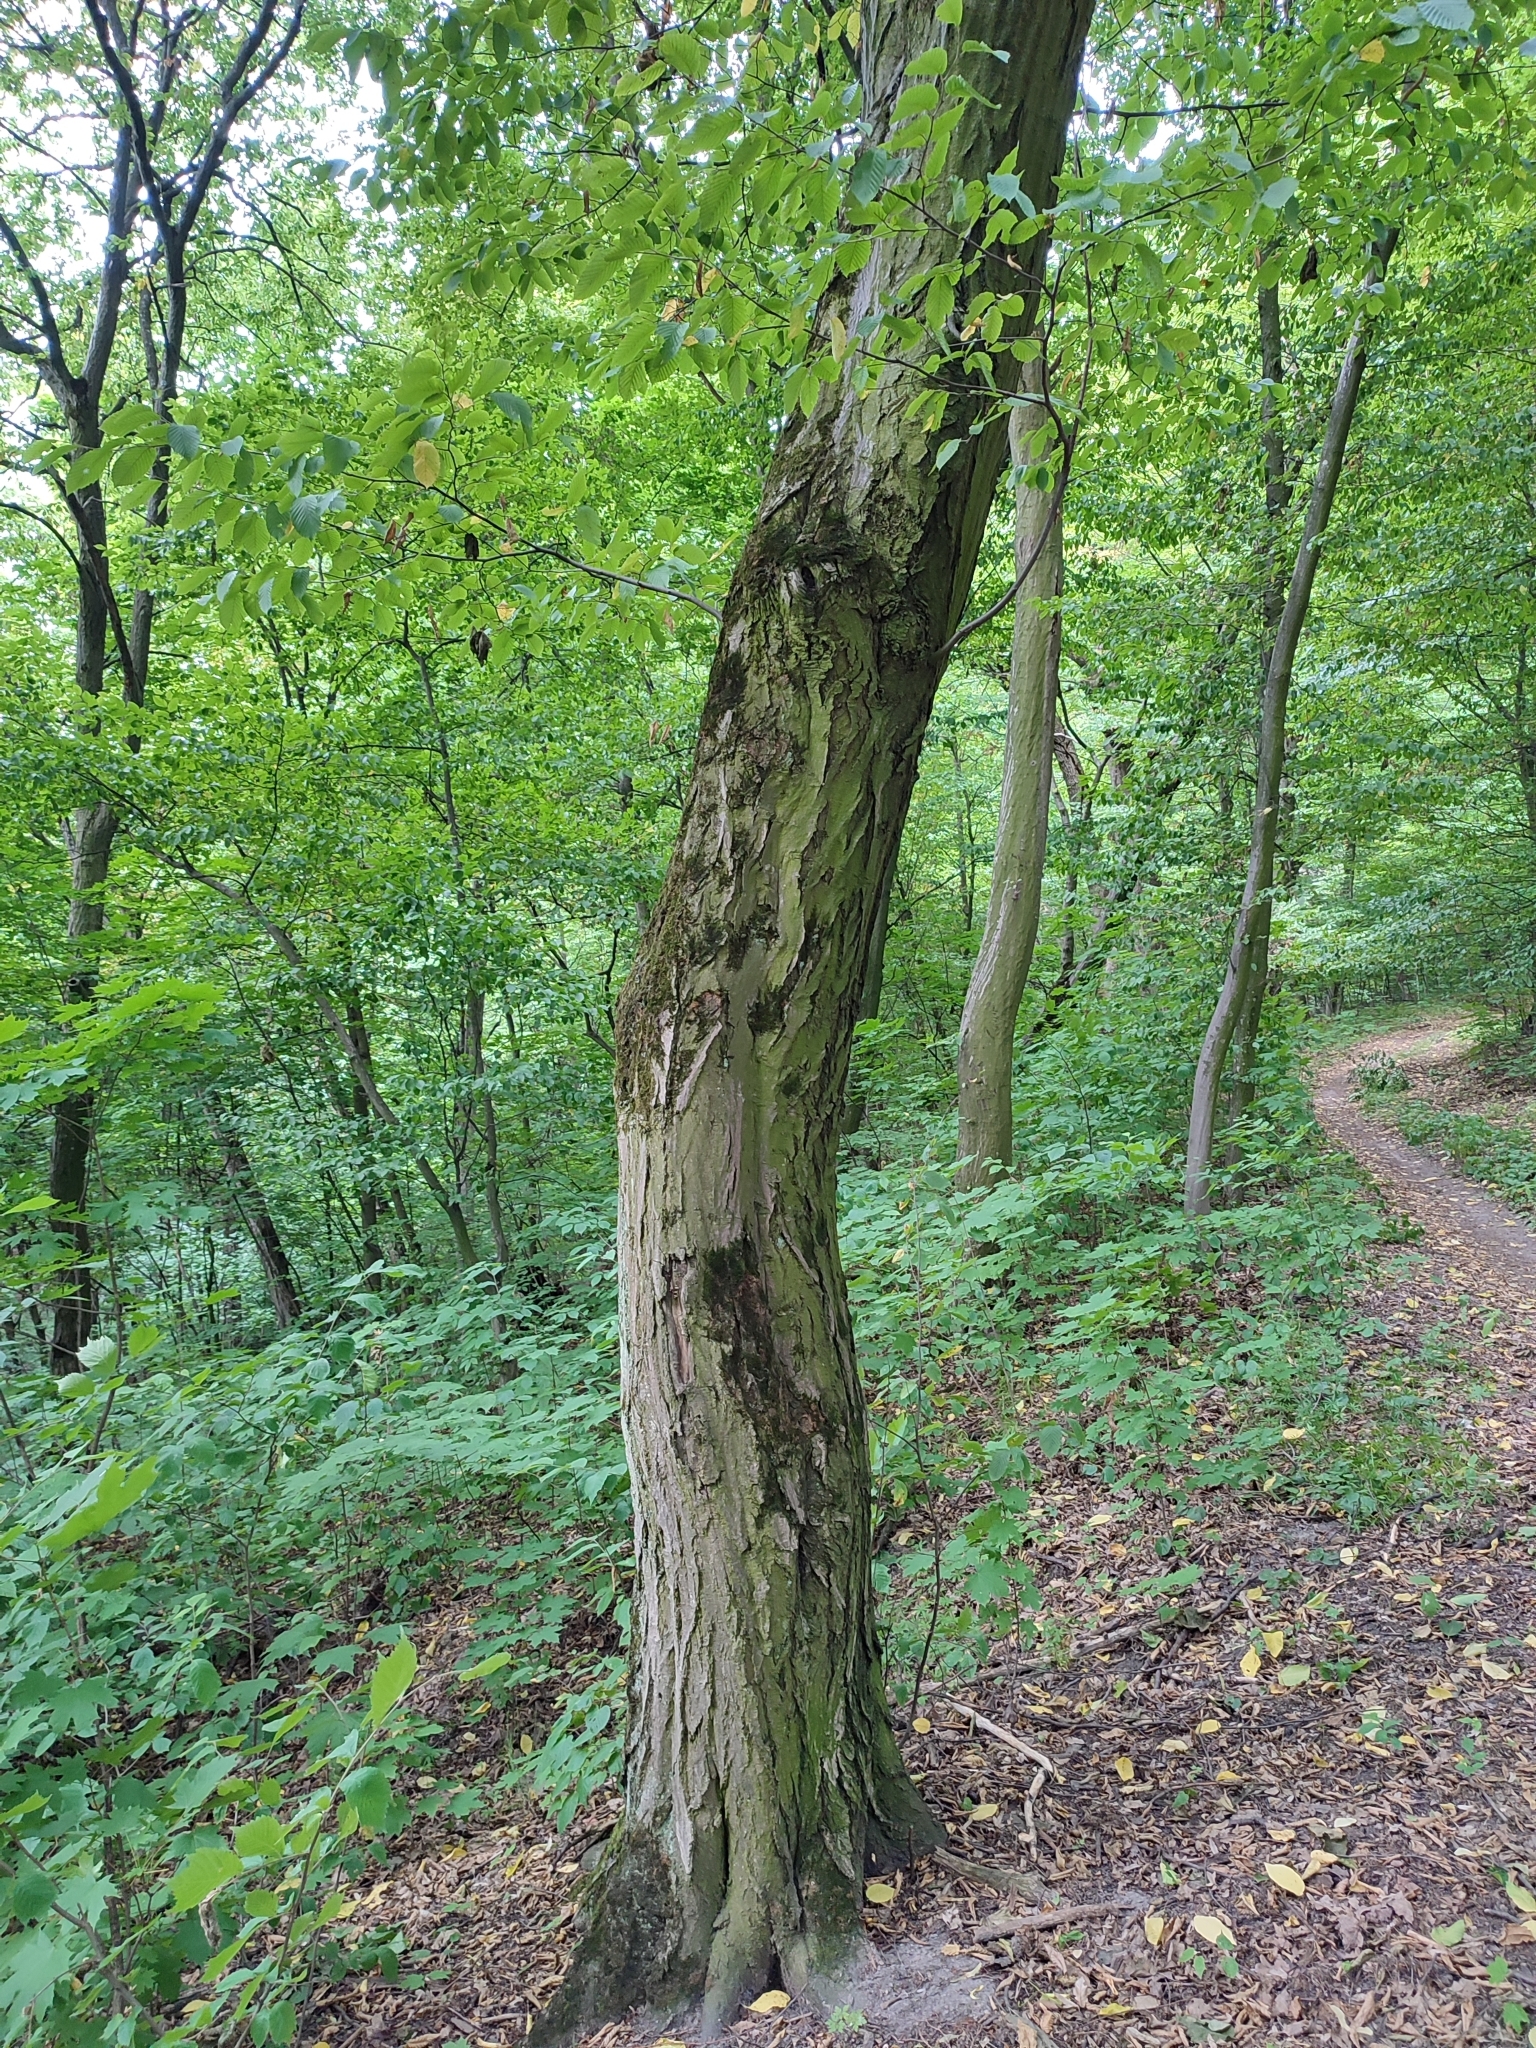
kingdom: Plantae
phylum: Tracheophyta
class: Magnoliopsida
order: Fagales
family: Betulaceae
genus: Carpinus
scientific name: Carpinus betulus
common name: Hornbeam
